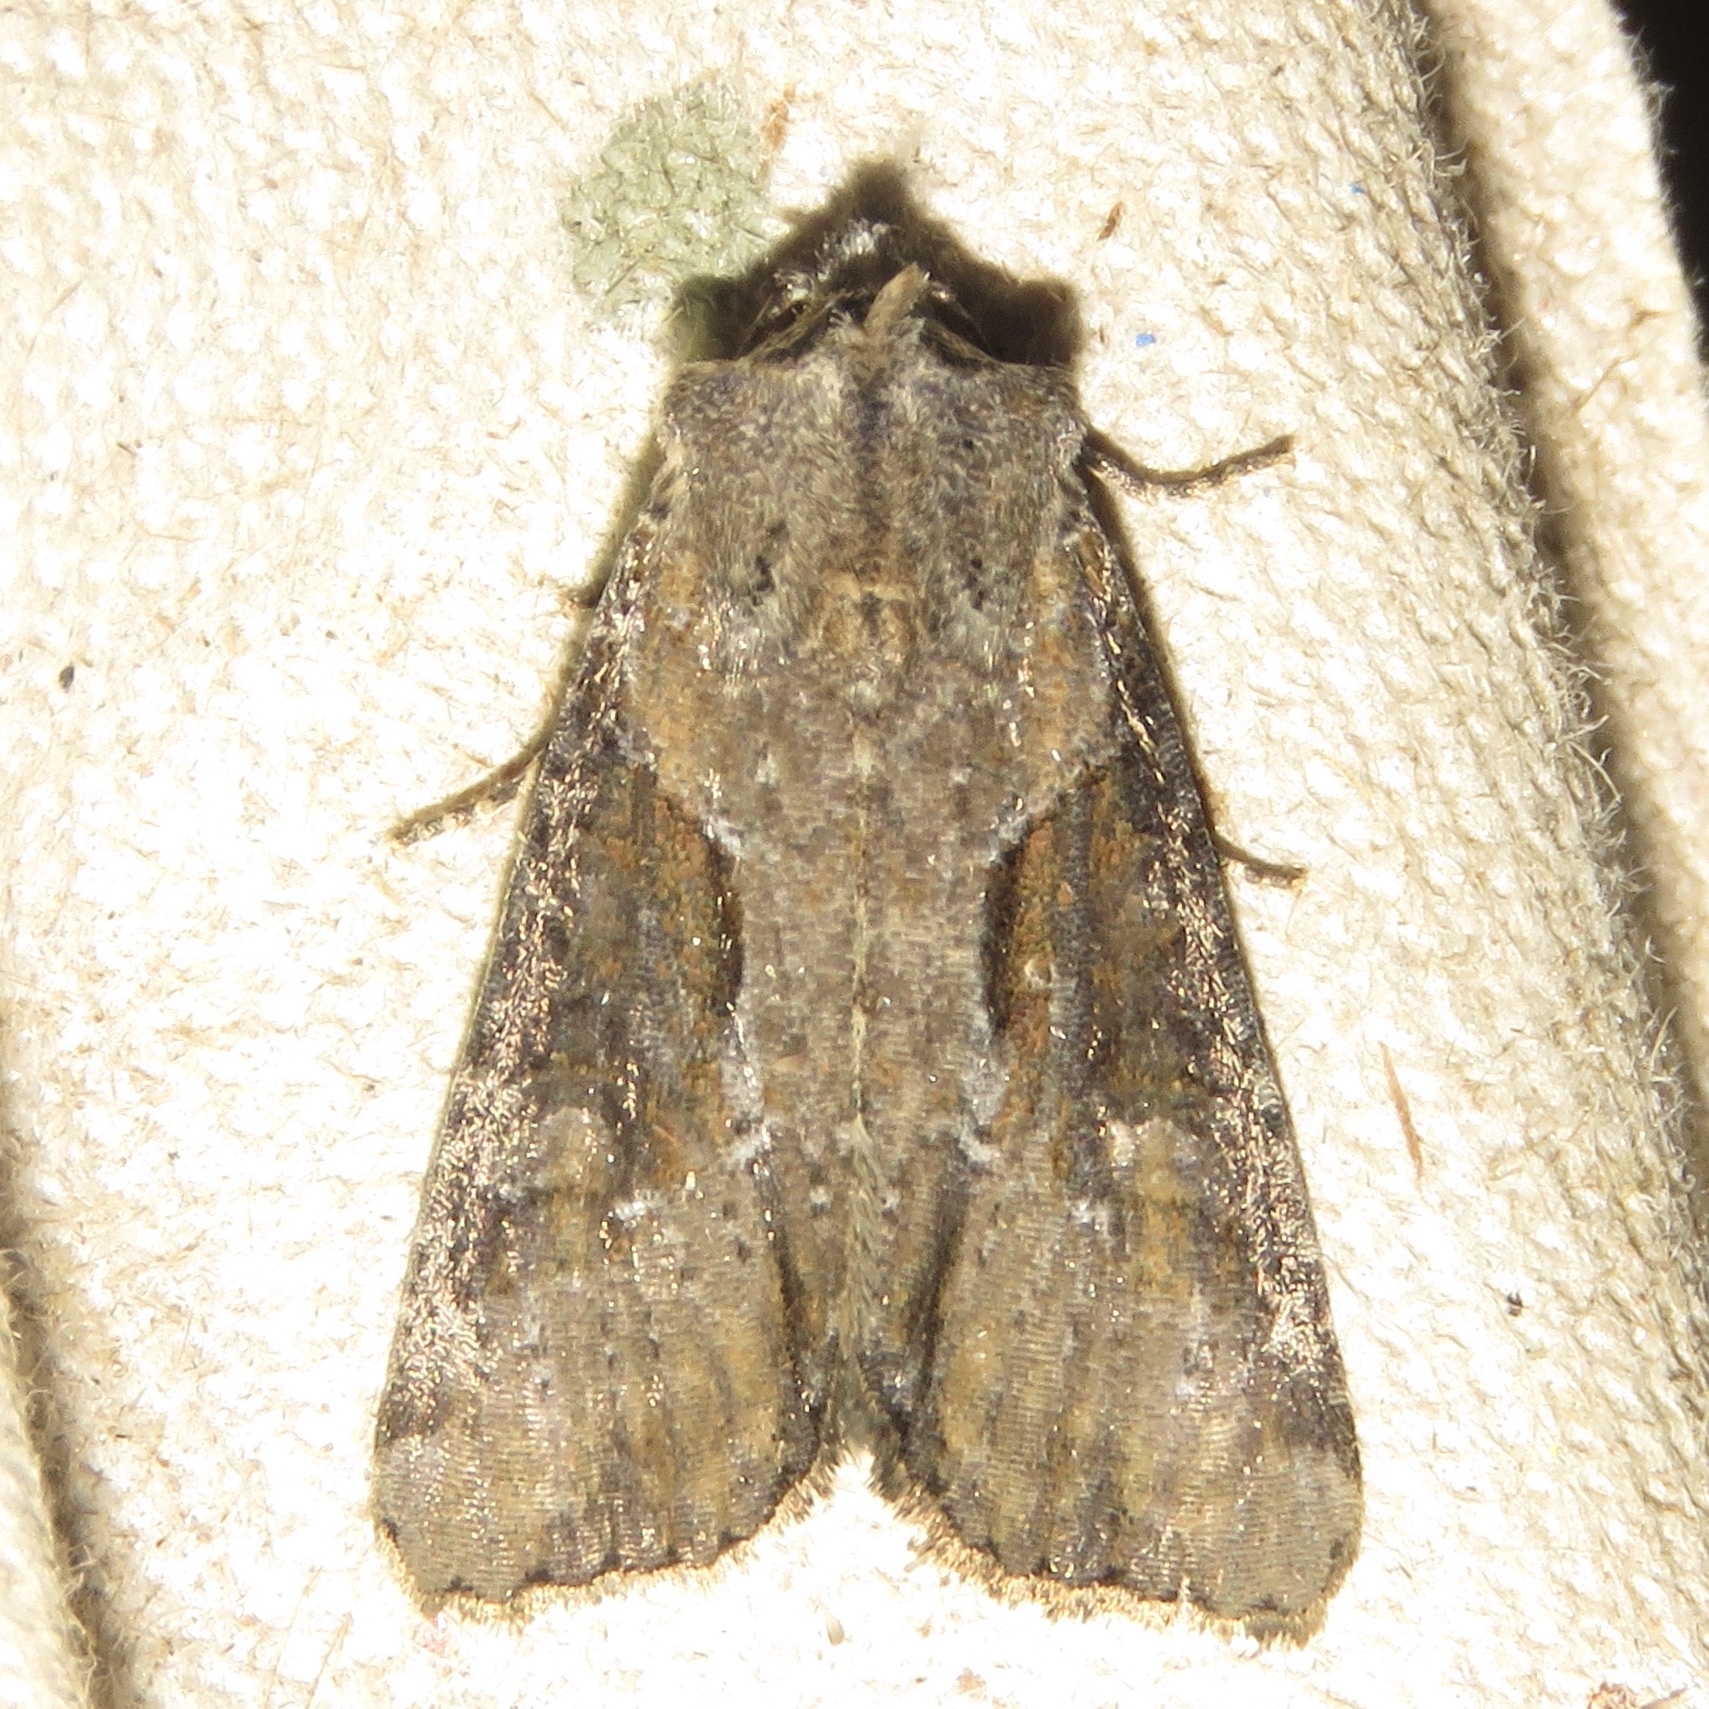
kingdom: Animalia
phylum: Arthropoda
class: Insecta
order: Lepidoptera
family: Noctuidae
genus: Lateroligia
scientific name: Lateroligia ophiogramma
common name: Double lobed
